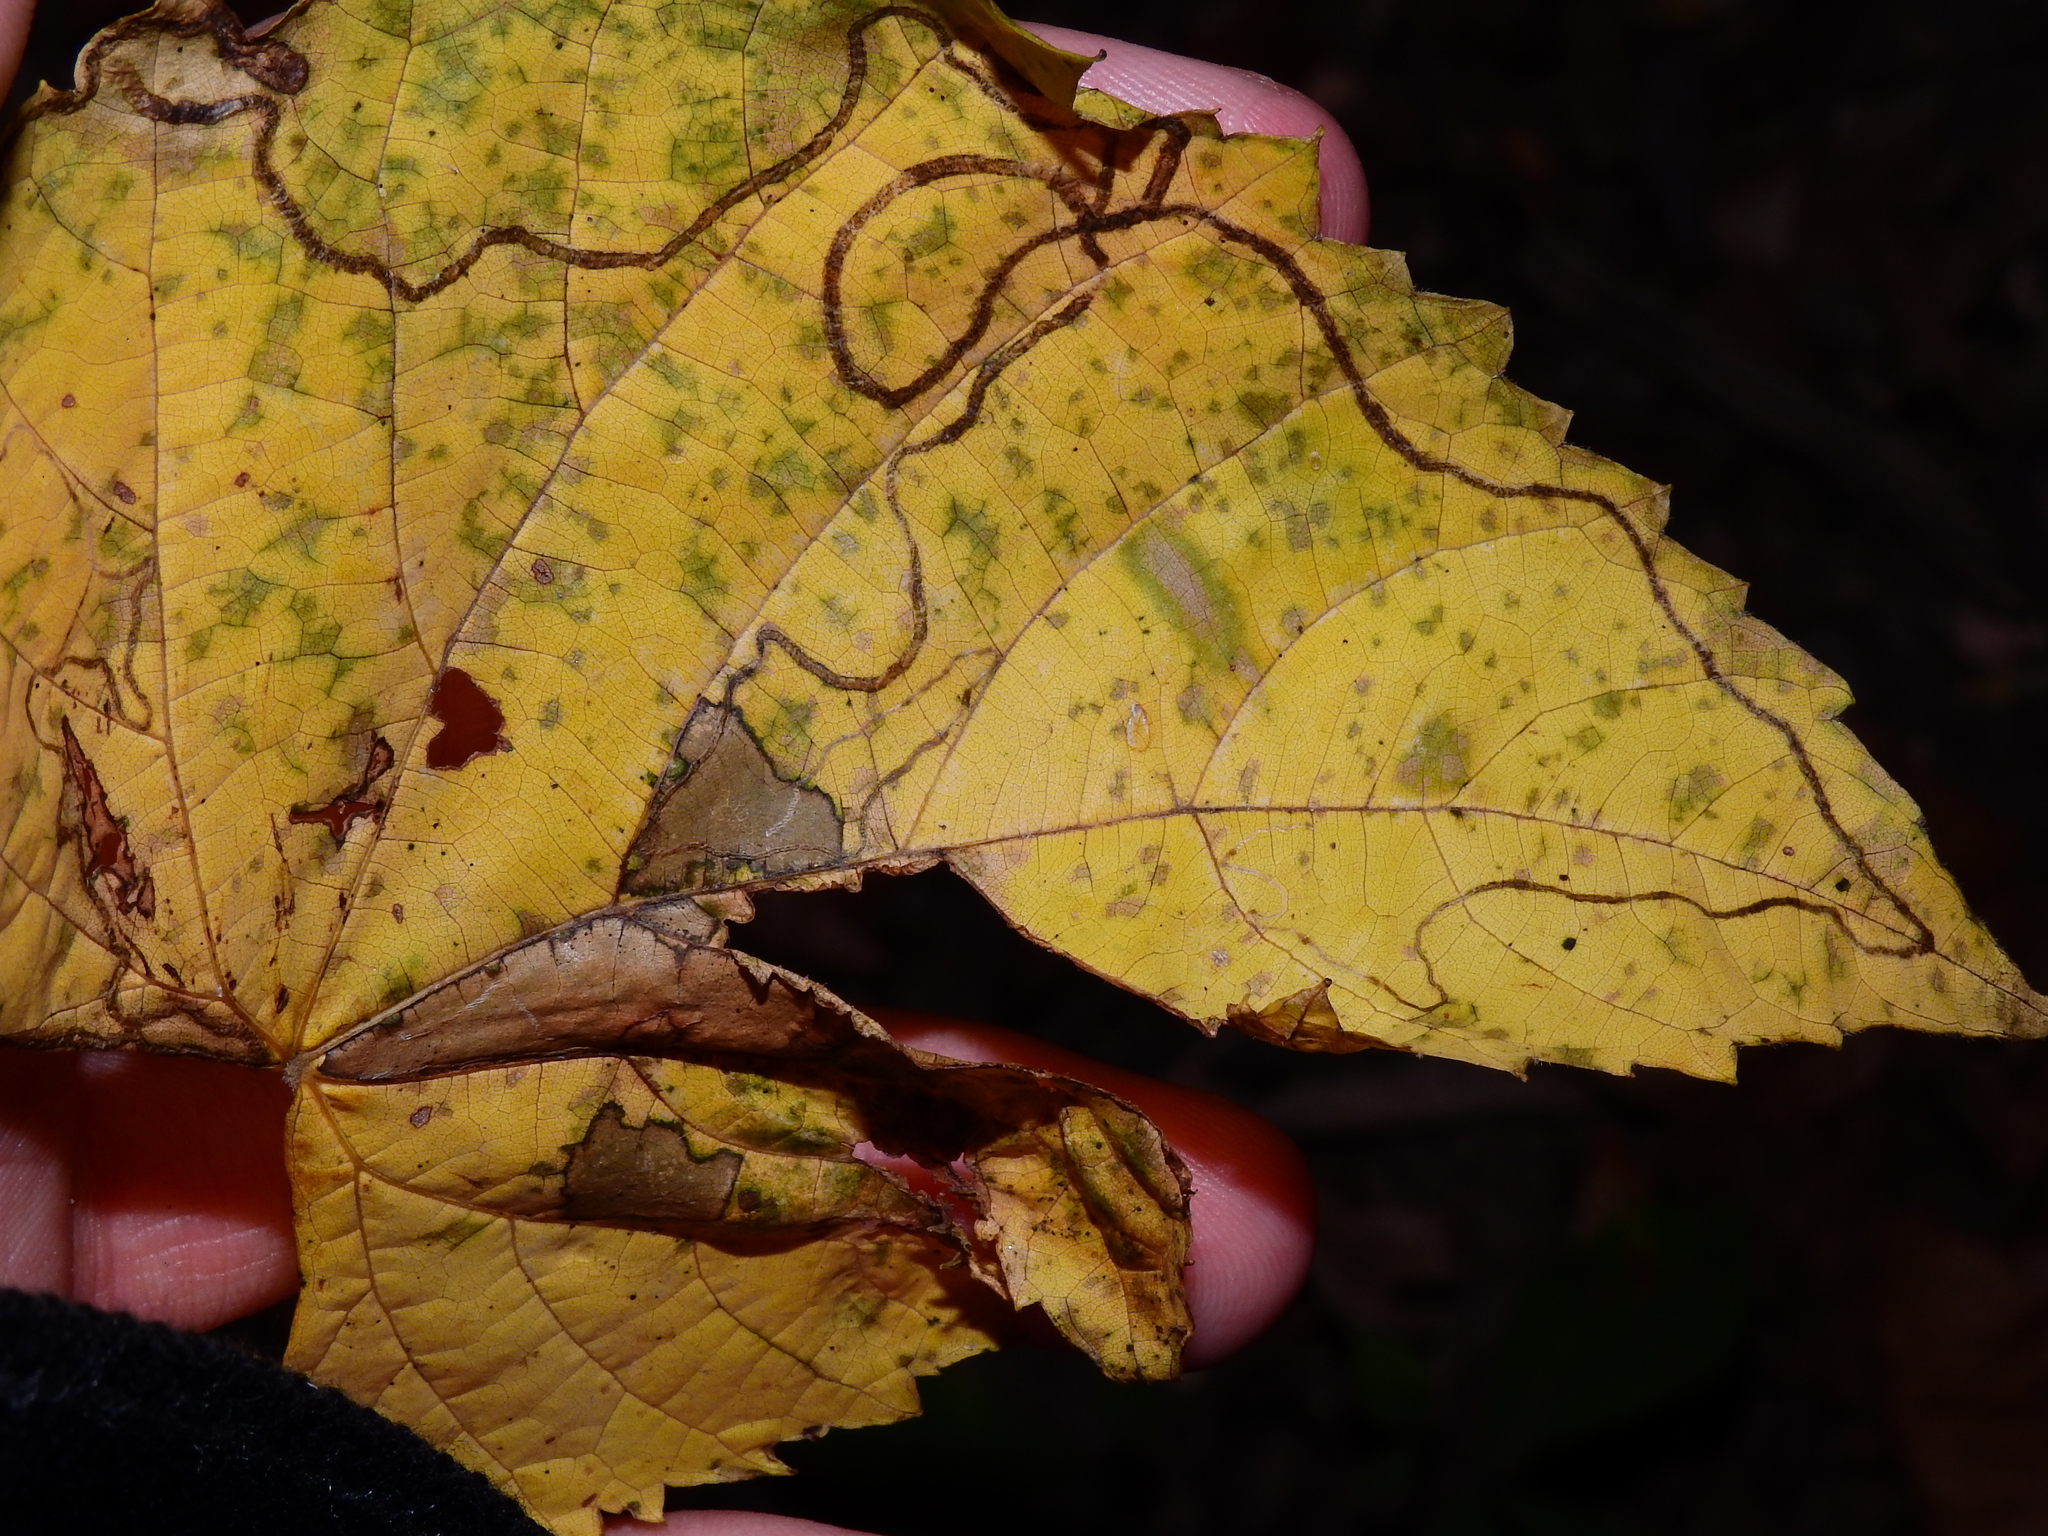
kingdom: Animalia
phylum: Arthropoda
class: Insecta
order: Lepidoptera
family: Gracillariidae
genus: Phyllocnistis
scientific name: Phyllocnistis vitifoliella
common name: Grape leaf-miner moth
